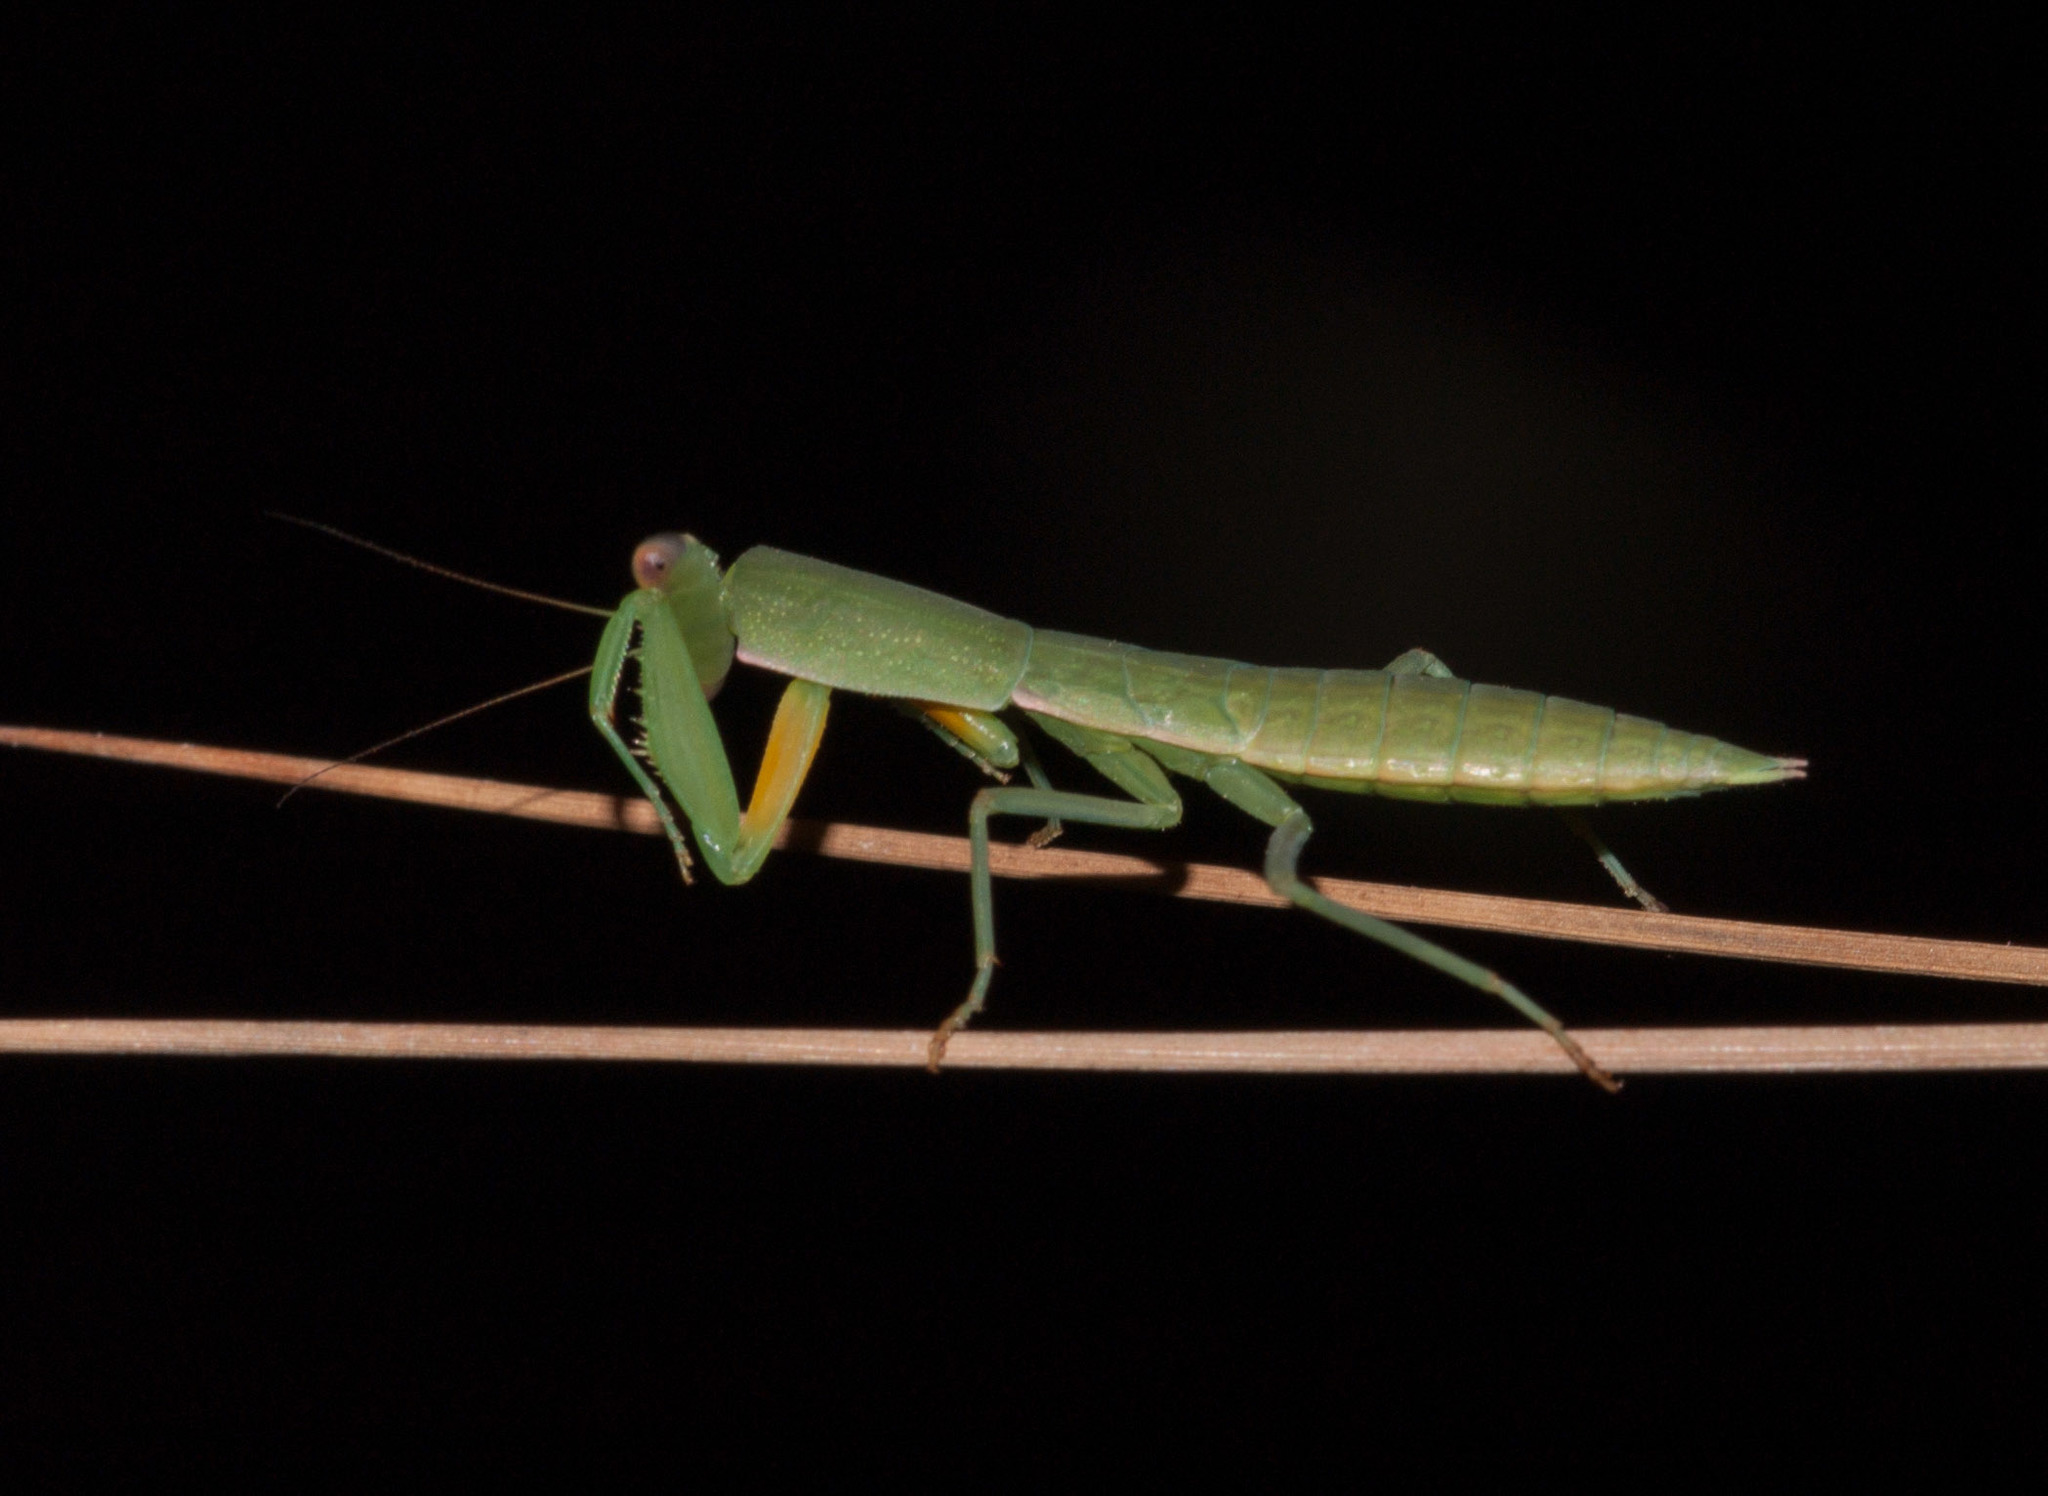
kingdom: Animalia
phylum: Arthropoda
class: Insecta
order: Mantodea
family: Mantidae
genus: Orthodera
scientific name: Orthodera ministralis
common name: Mantis
